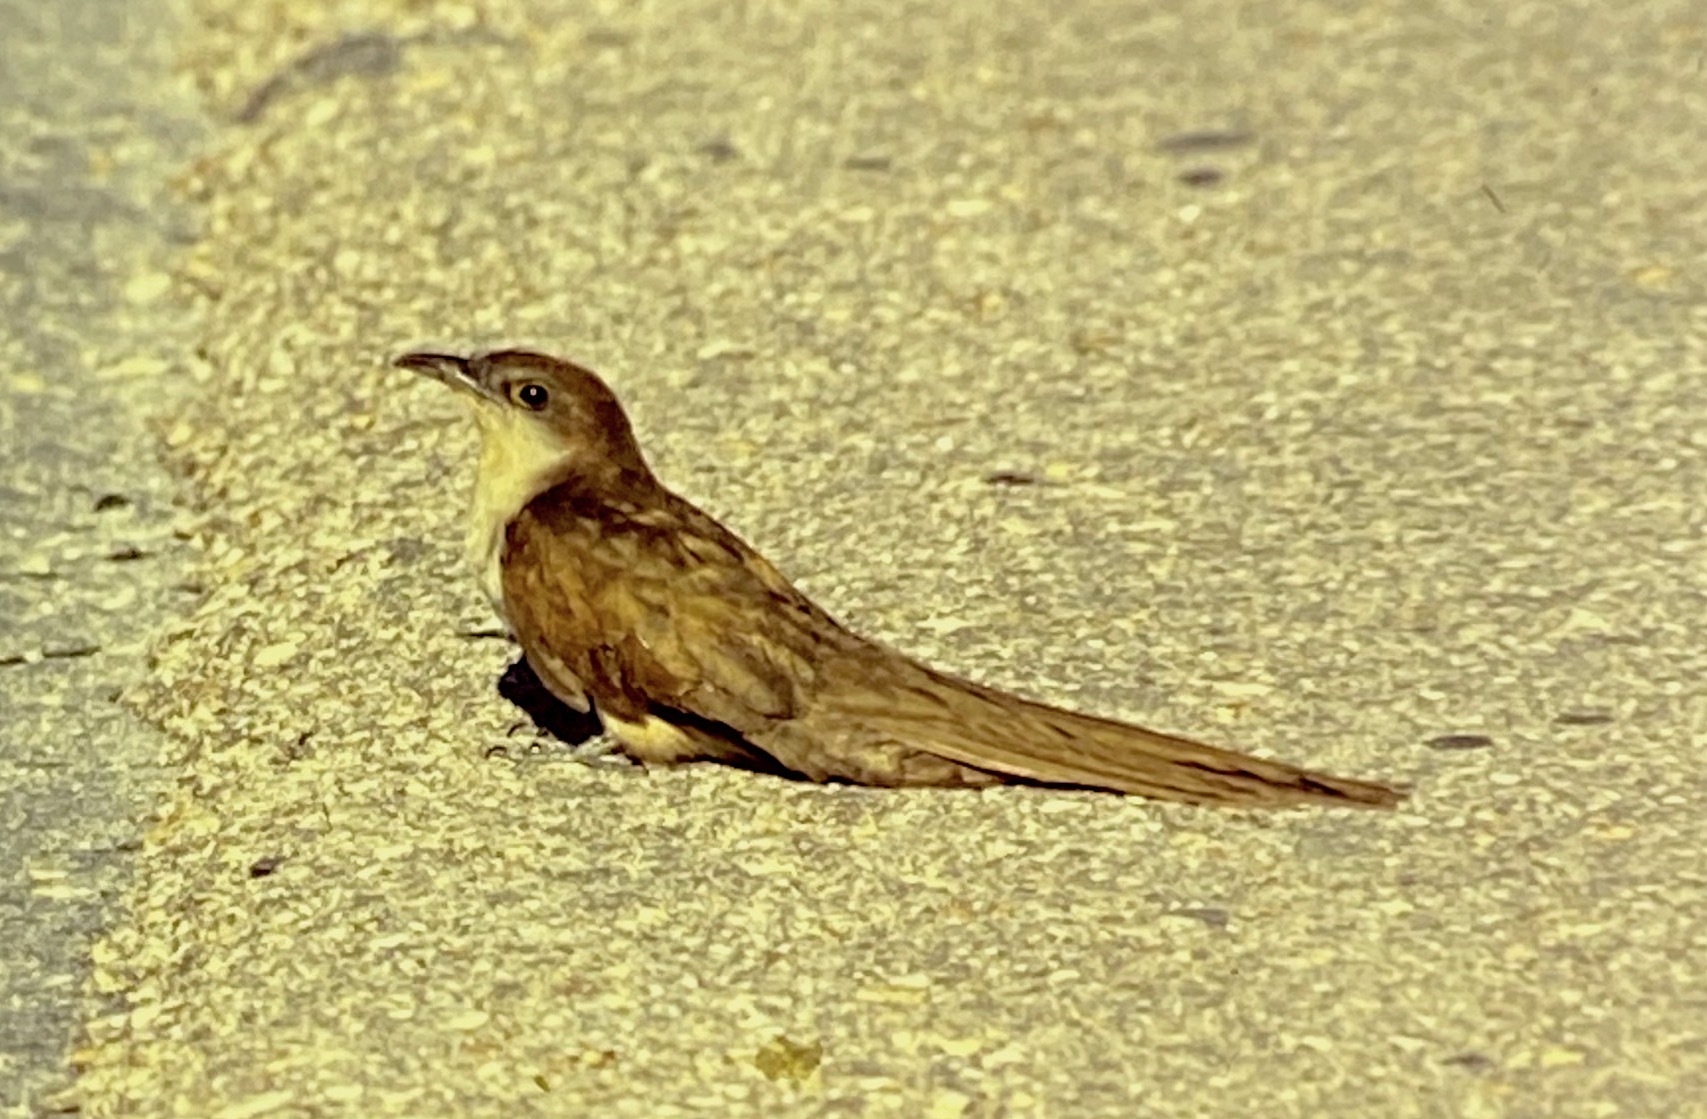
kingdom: Animalia
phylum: Chordata
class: Aves
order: Cuculiformes
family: Cuculidae
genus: Coccyzus
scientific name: Coccyzus erythropthalmus
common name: Black-billed cuckoo
